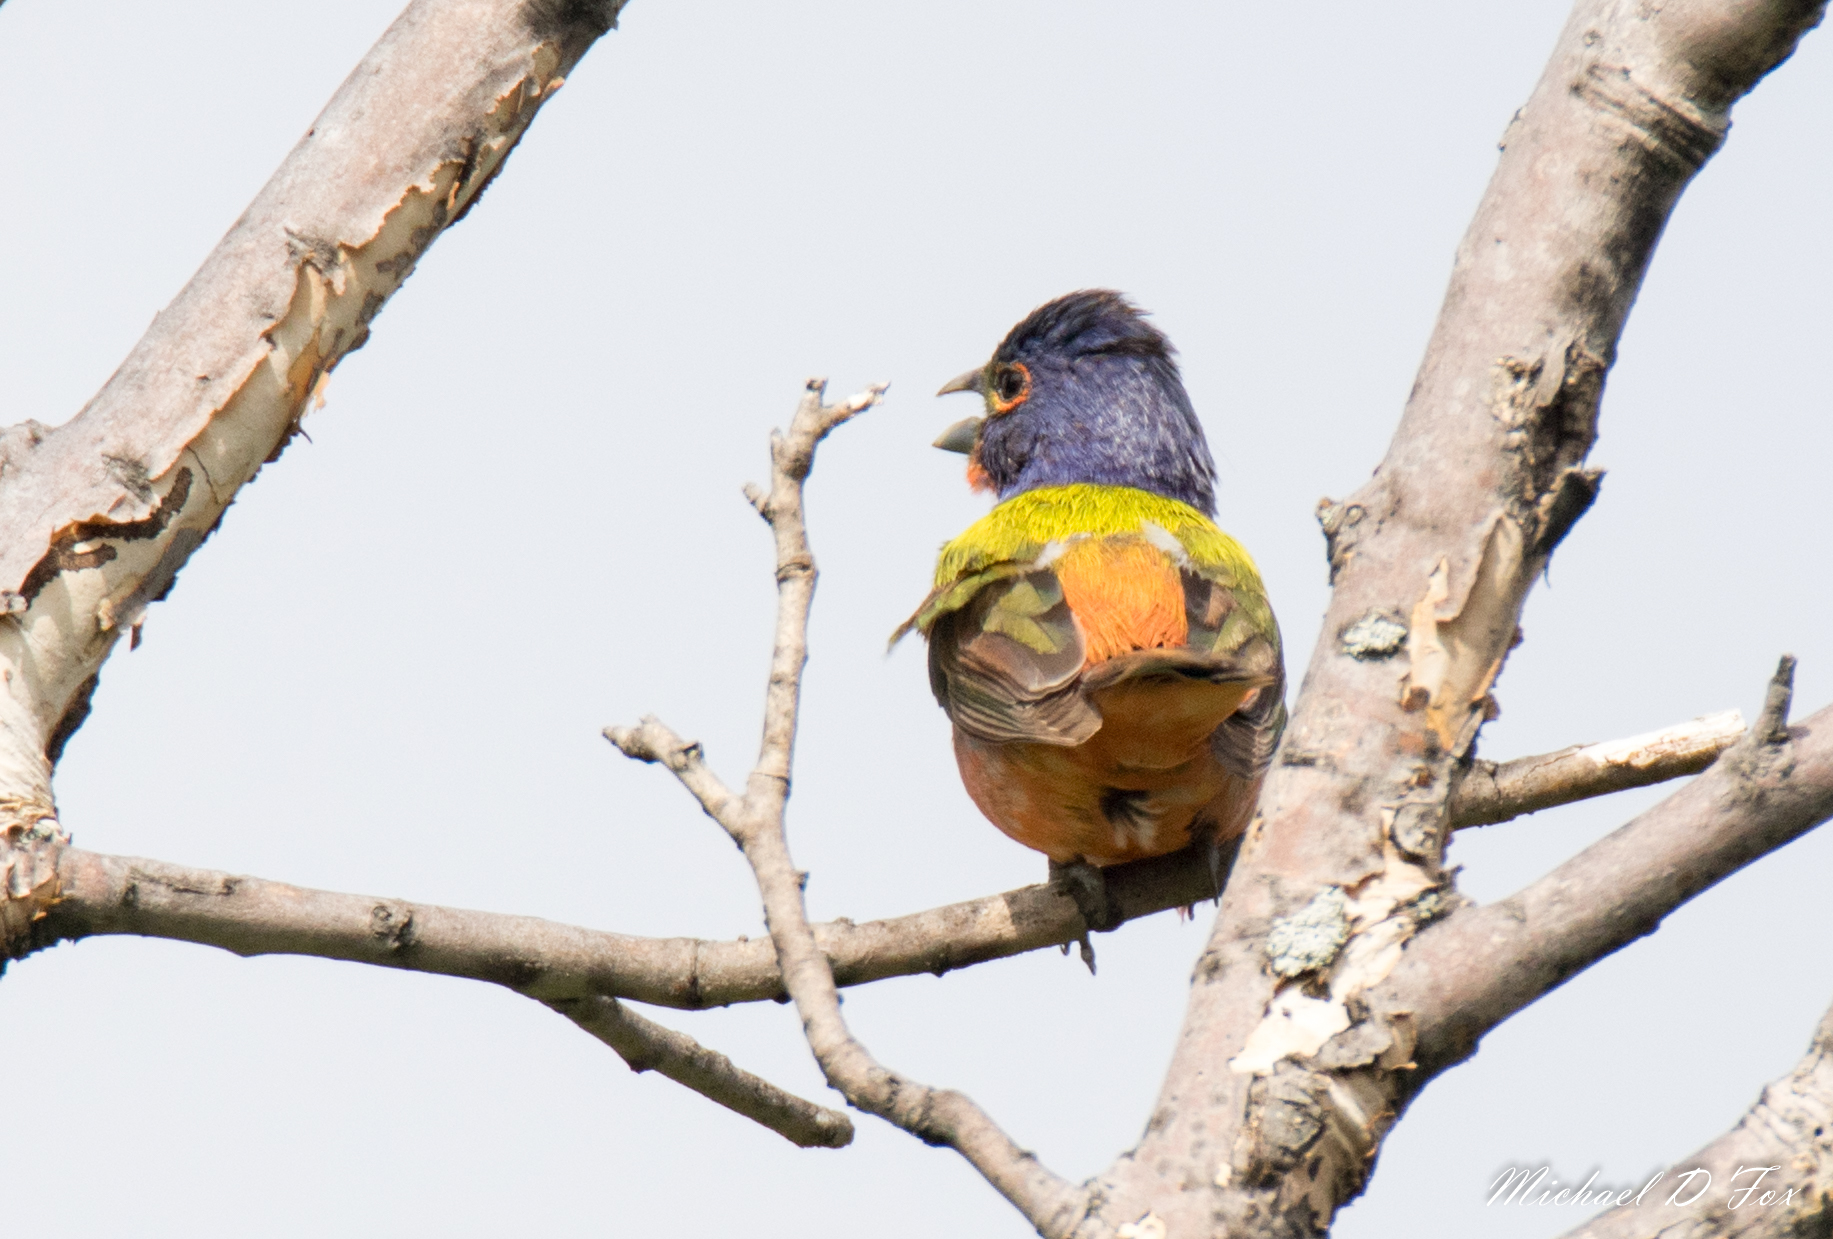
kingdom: Animalia
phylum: Chordata
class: Aves
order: Passeriformes
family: Cardinalidae
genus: Passerina
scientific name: Passerina ciris
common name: Painted bunting
